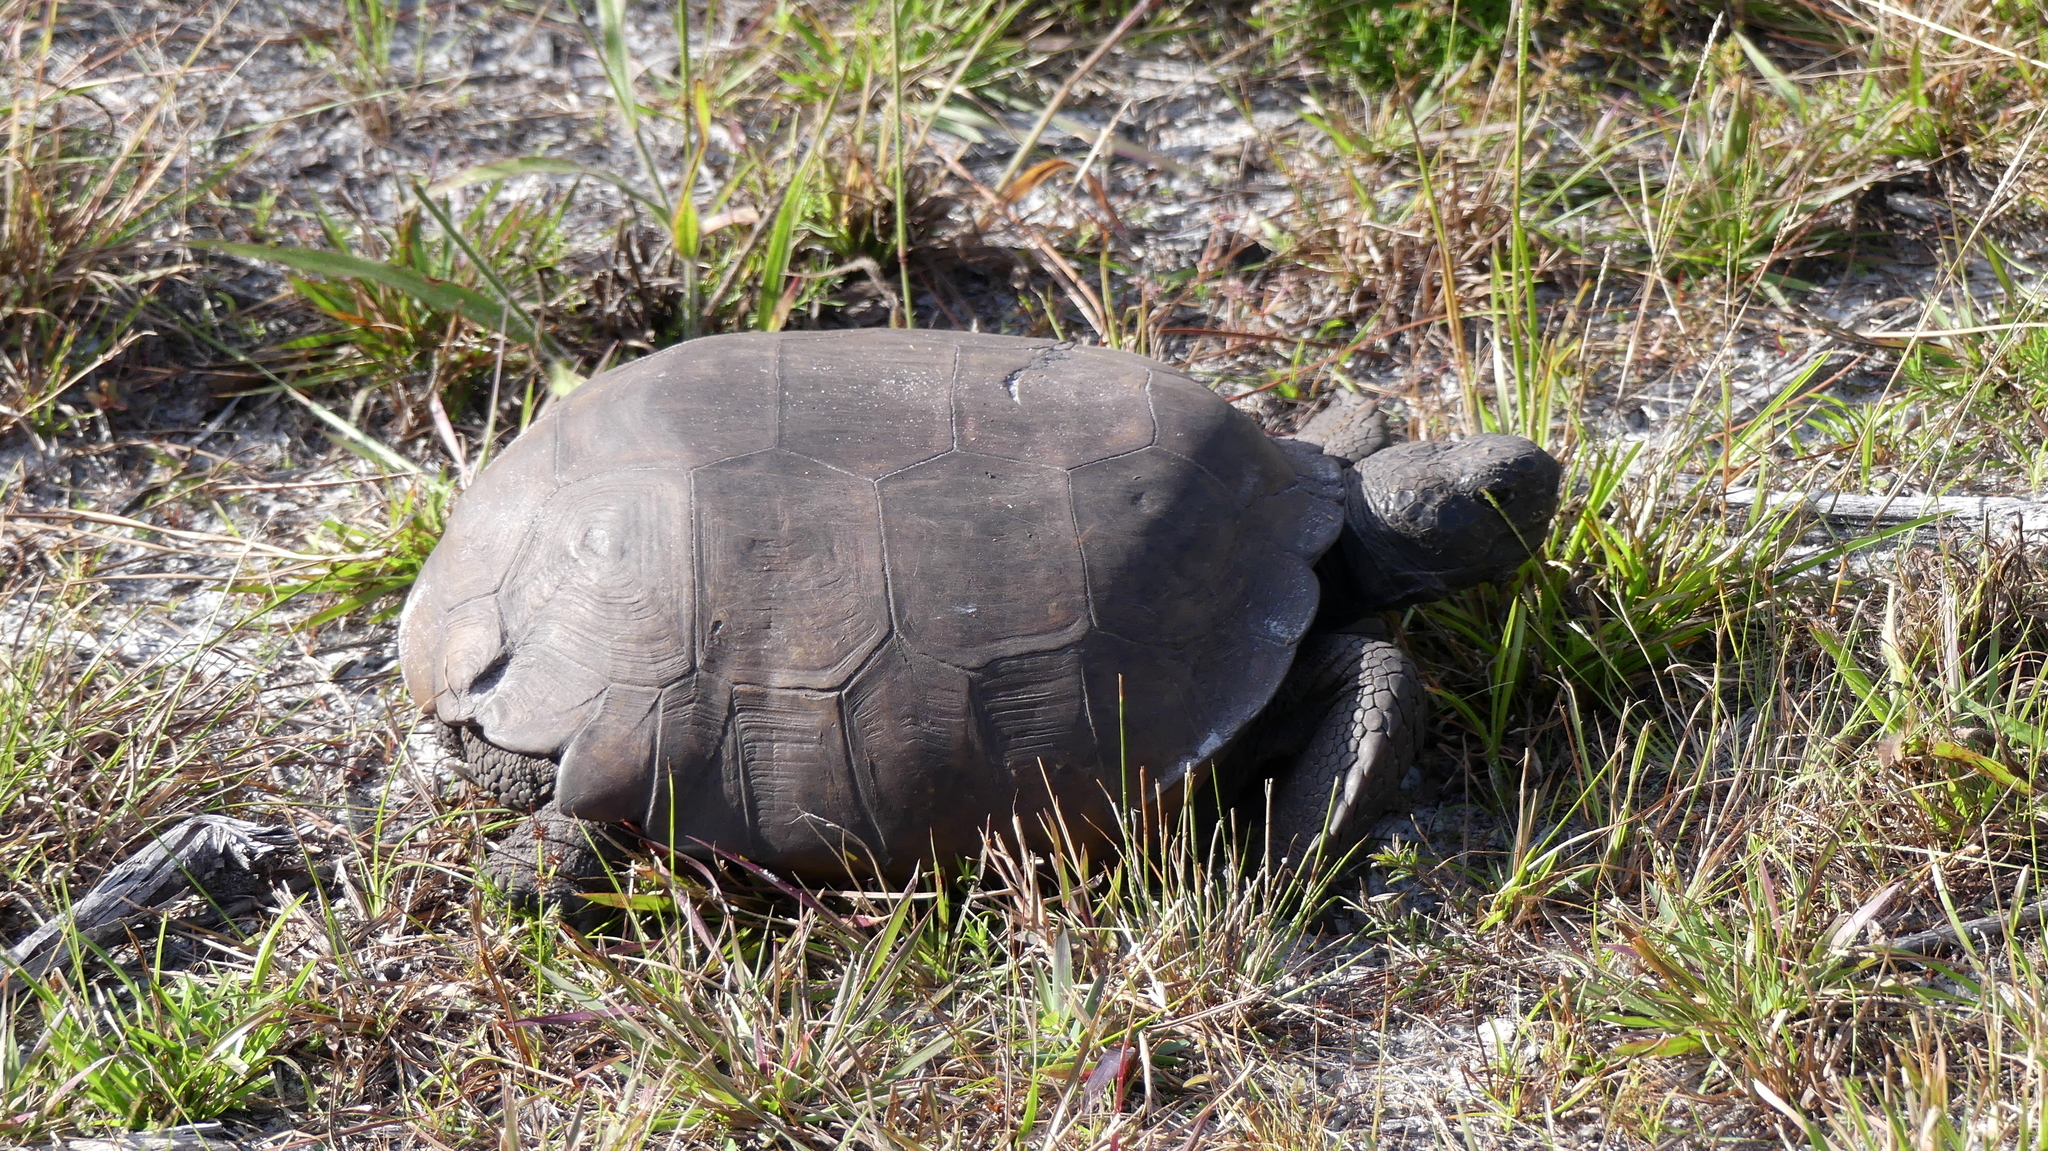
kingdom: Animalia
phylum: Chordata
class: Testudines
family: Testudinidae
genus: Gopherus
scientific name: Gopherus polyphemus
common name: Florida gopher tortoise
